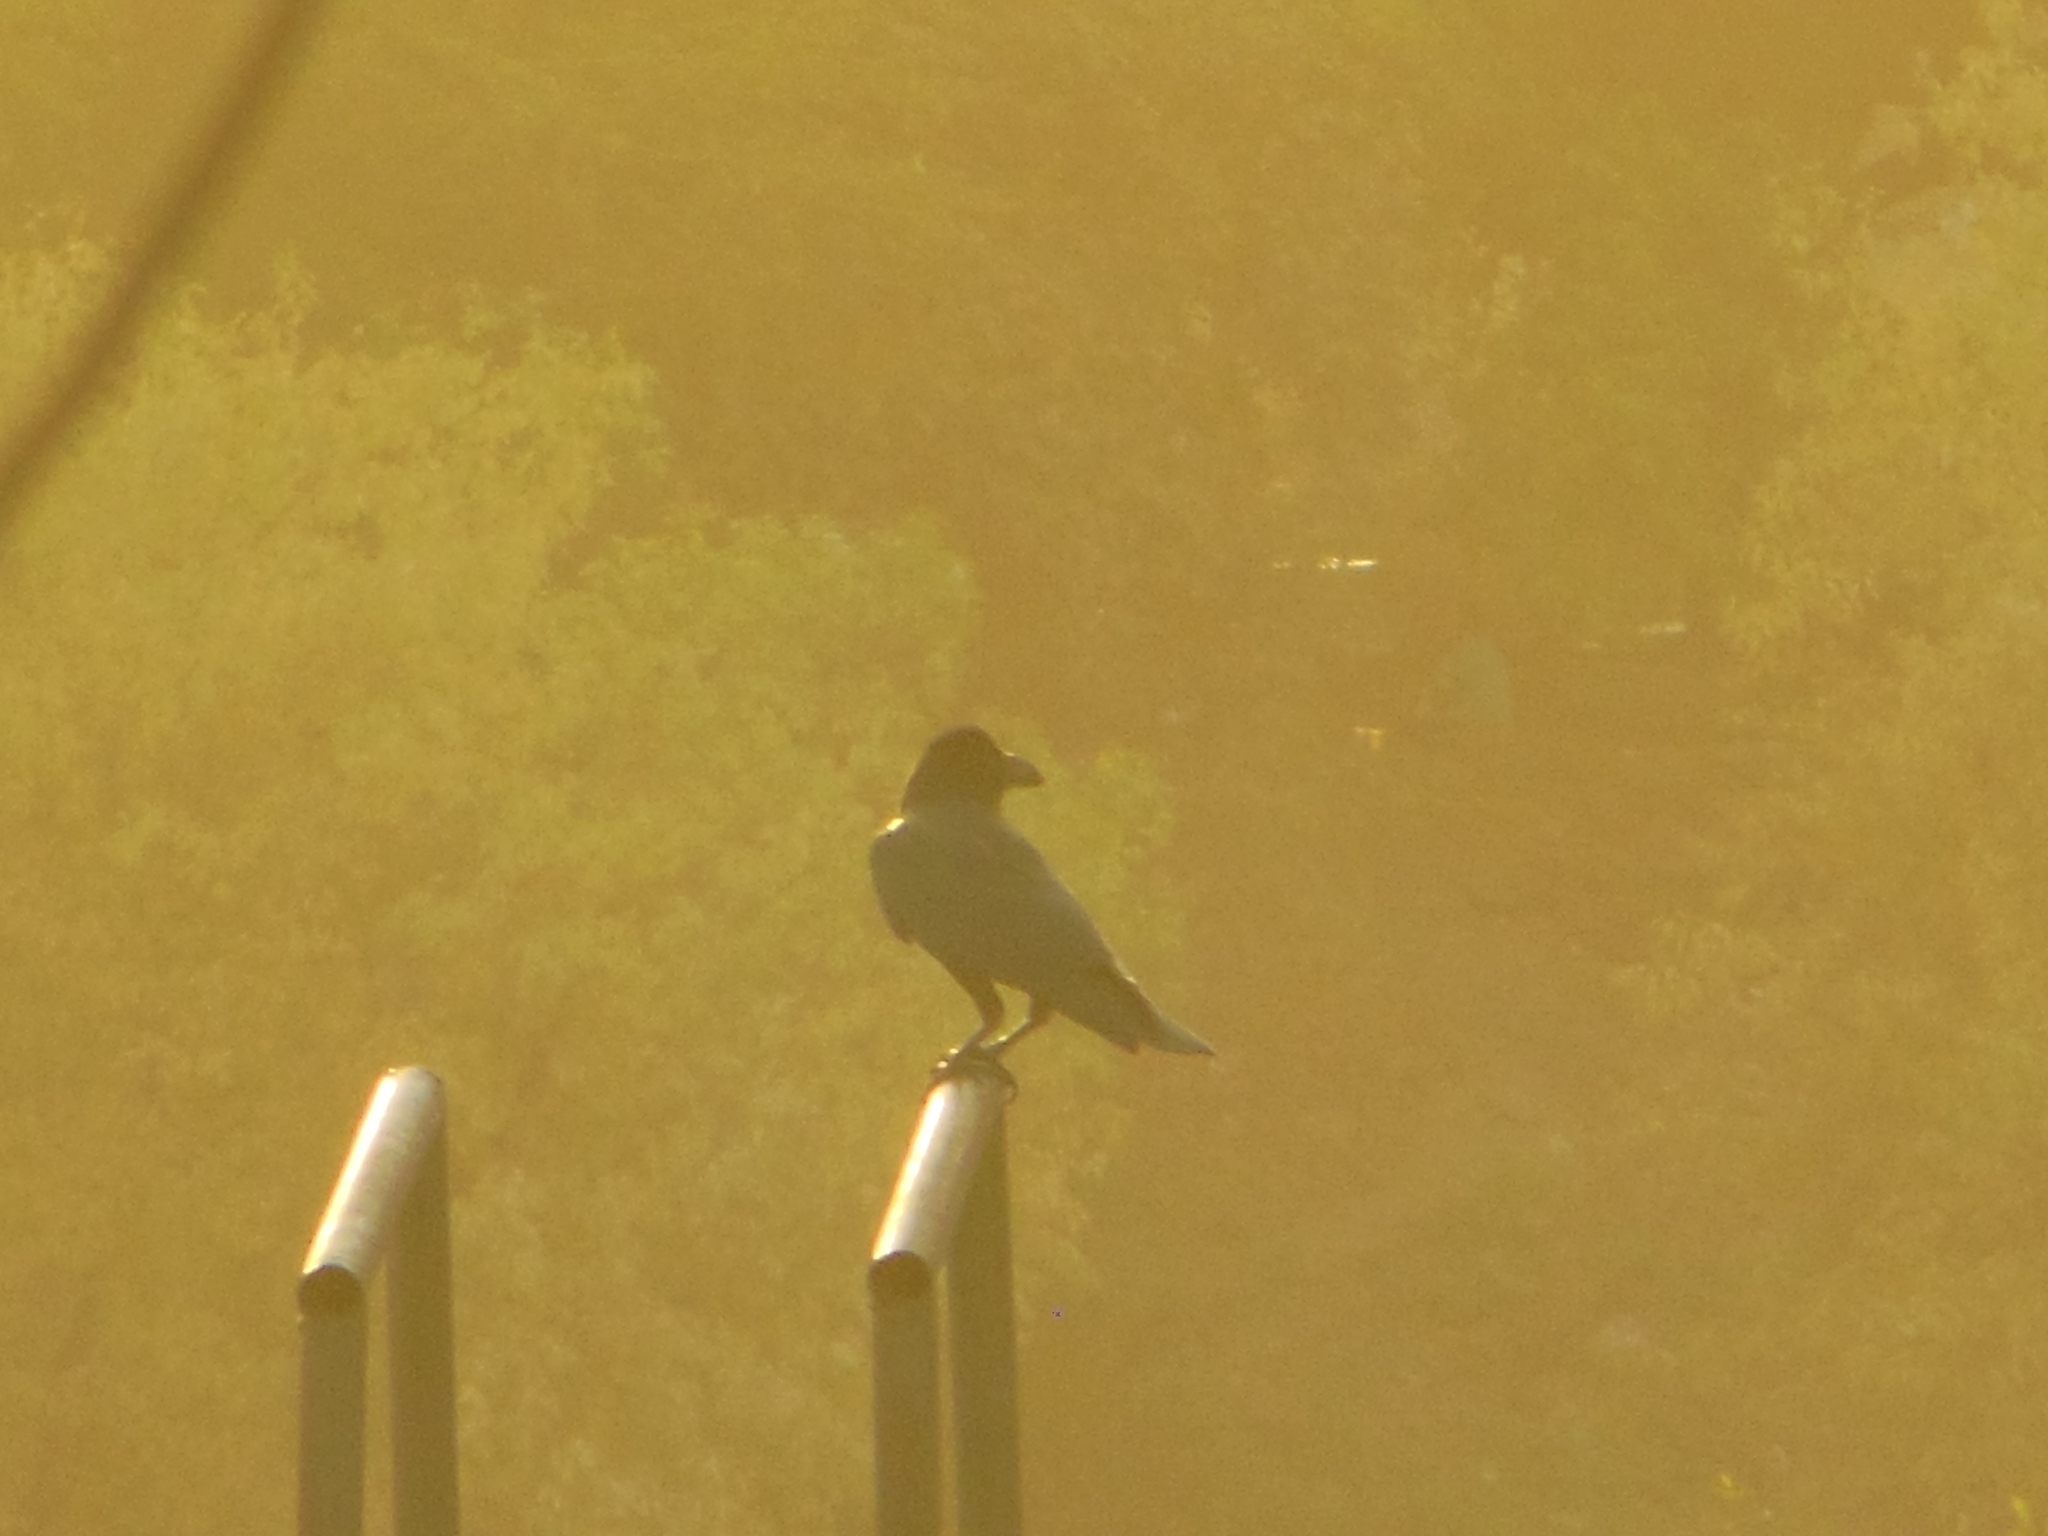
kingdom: Animalia
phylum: Chordata
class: Aves
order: Passeriformes
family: Corvidae
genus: Corvus
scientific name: Corvus macrorhynchos
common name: Large-billed crow
